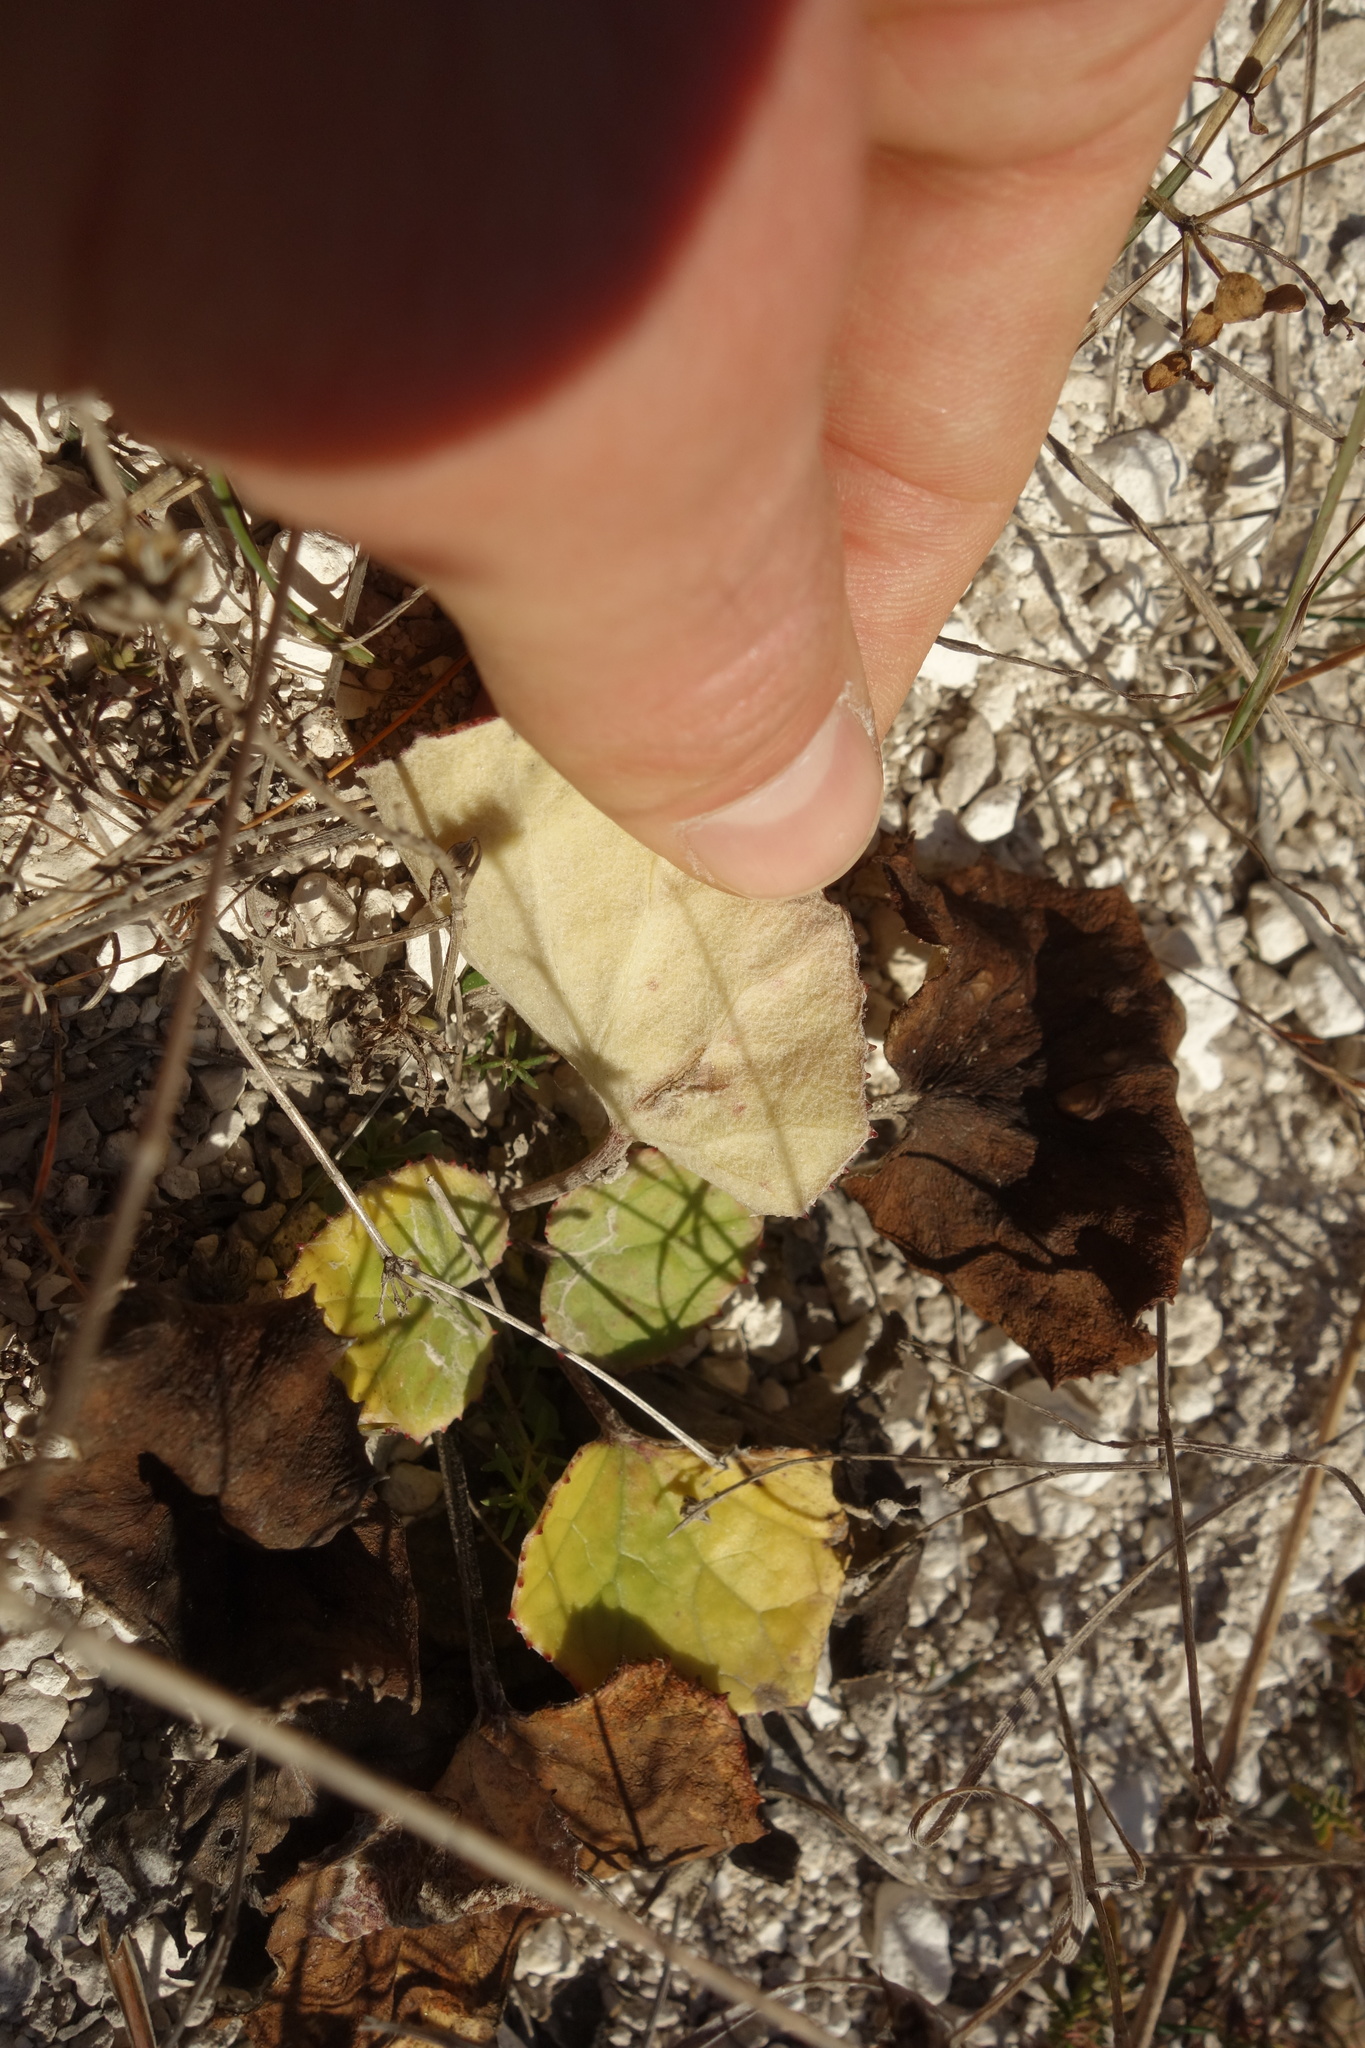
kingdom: Plantae
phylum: Tracheophyta
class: Magnoliopsida
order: Asterales
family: Asteraceae
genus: Tussilago
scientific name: Tussilago farfara
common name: Coltsfoot
